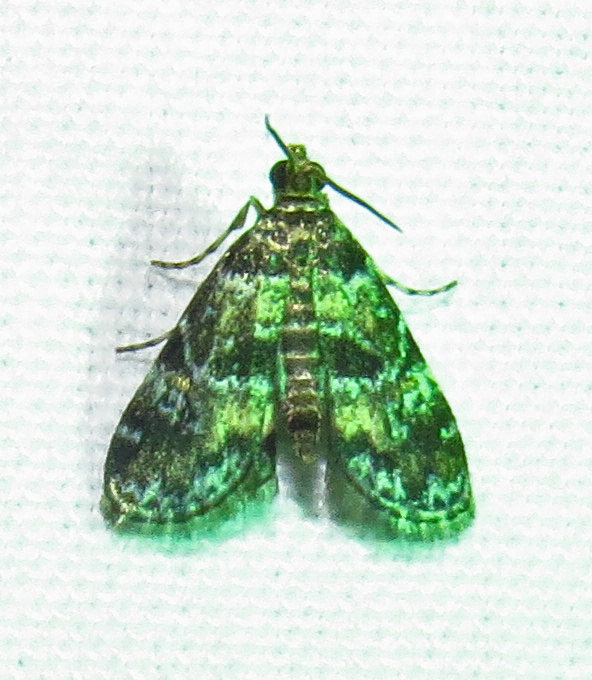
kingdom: Animalia
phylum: Arthropoda
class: Insecta
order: Lepidoptera
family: Crambidae
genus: Elophila
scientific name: Elophila obliteralis
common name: Waterlily leafcutter moth
